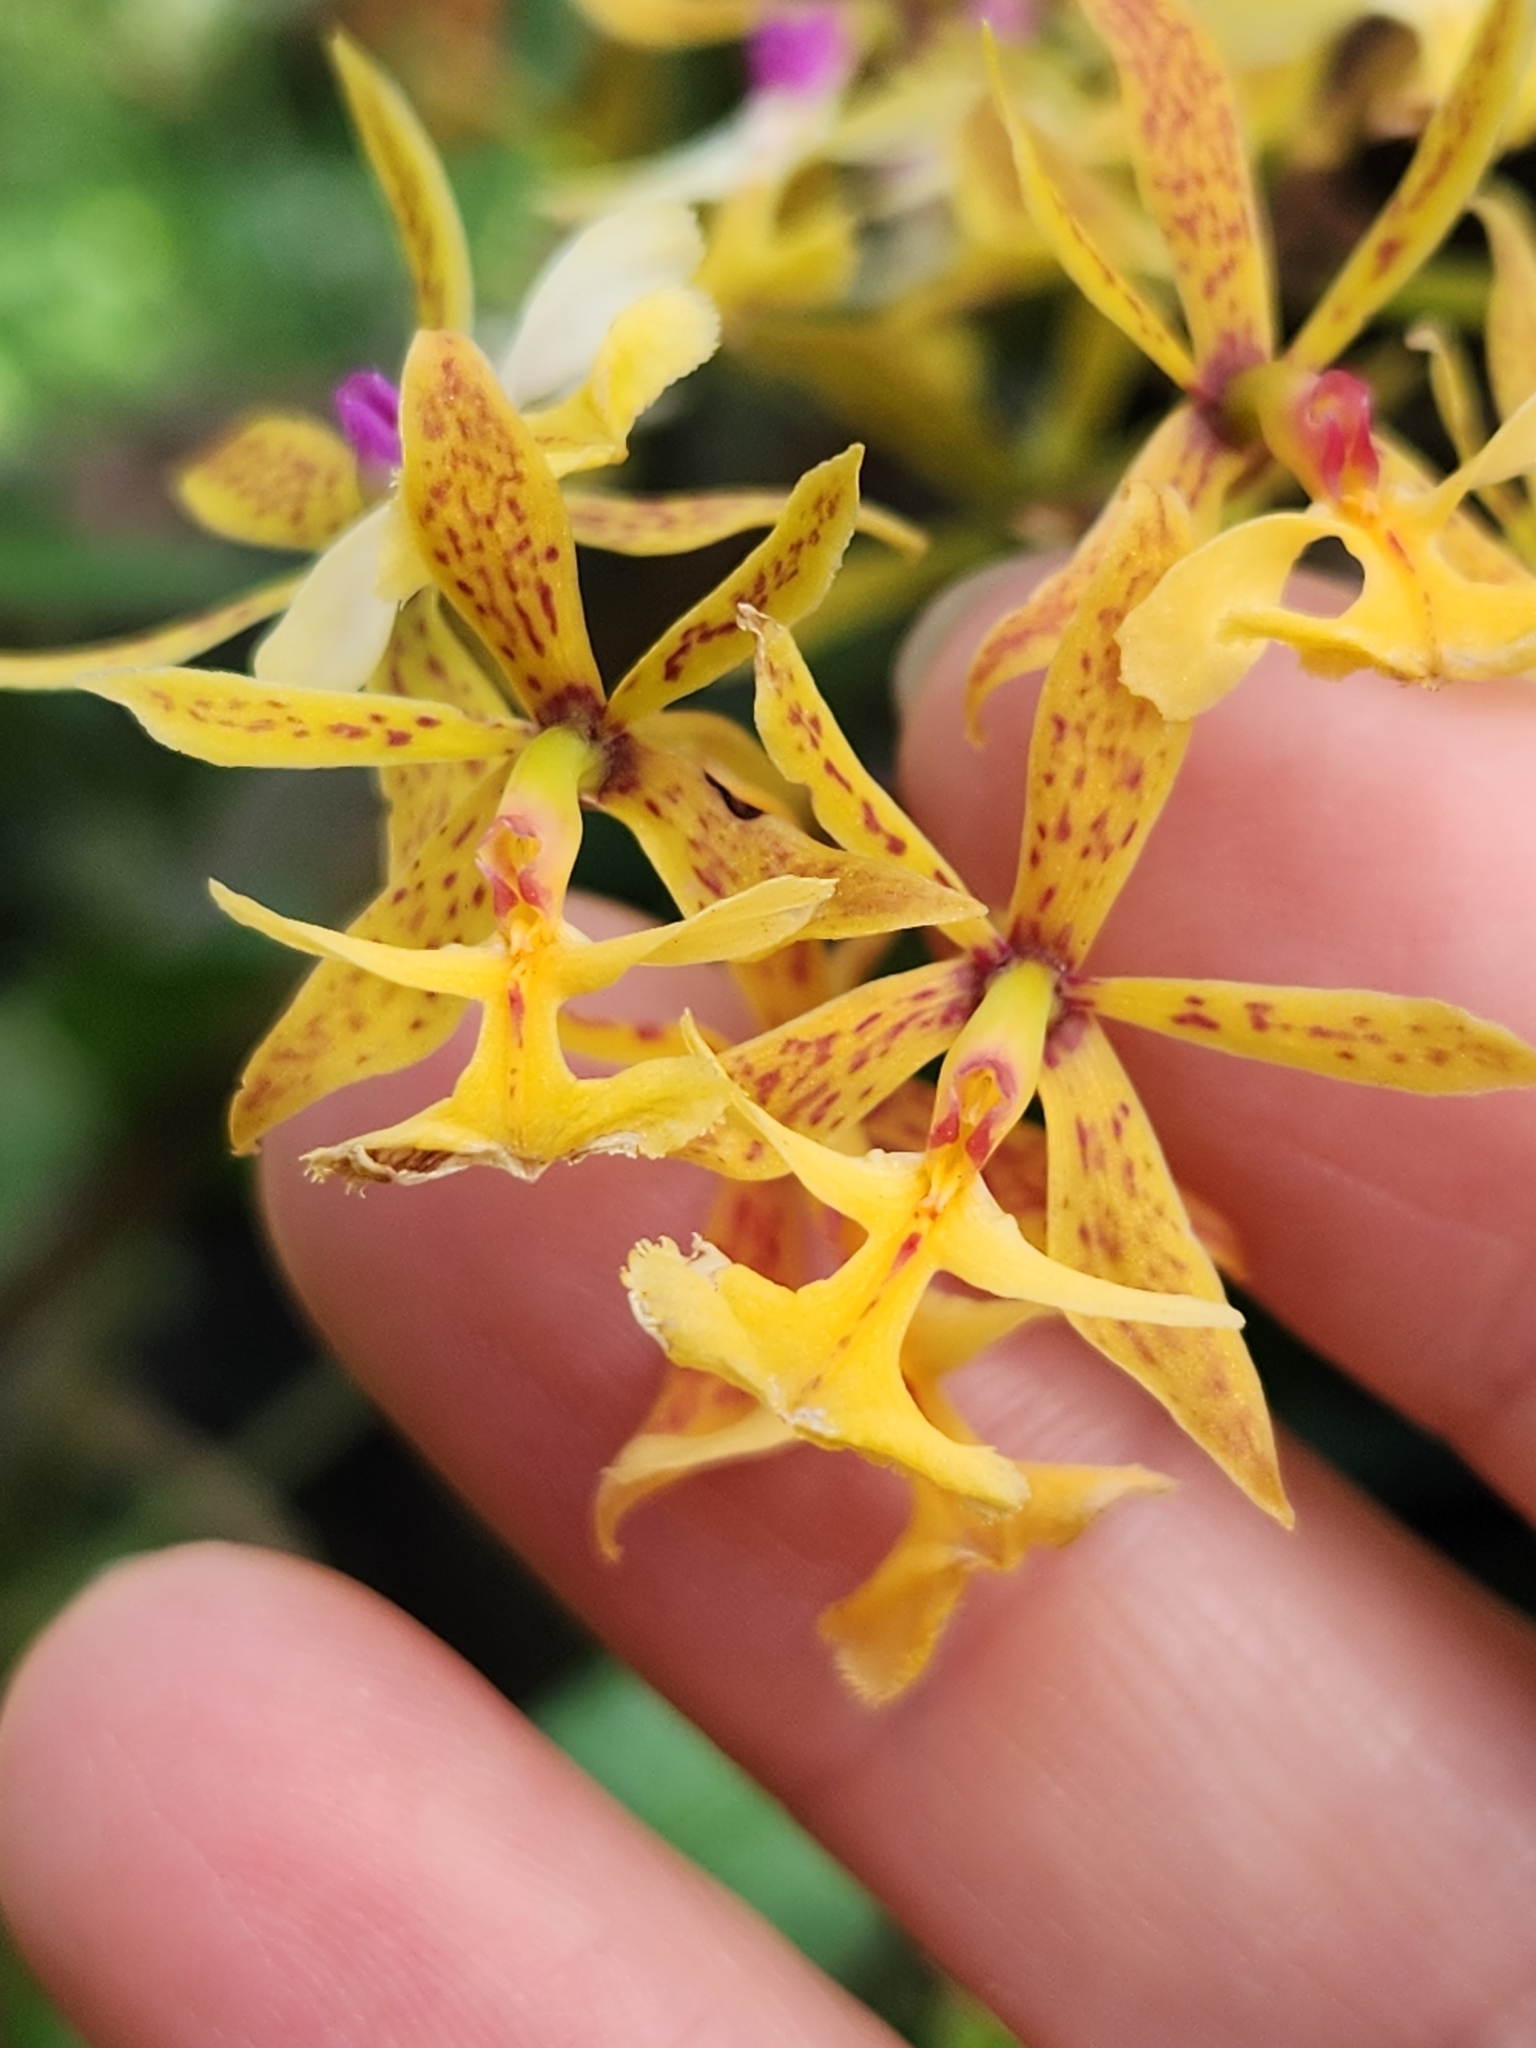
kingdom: Plantae
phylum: Tracheophyta
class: Liliopsida
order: Asparagales
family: Orchidaceae
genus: Epidendrum
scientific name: Epidendrum stamfordianum
